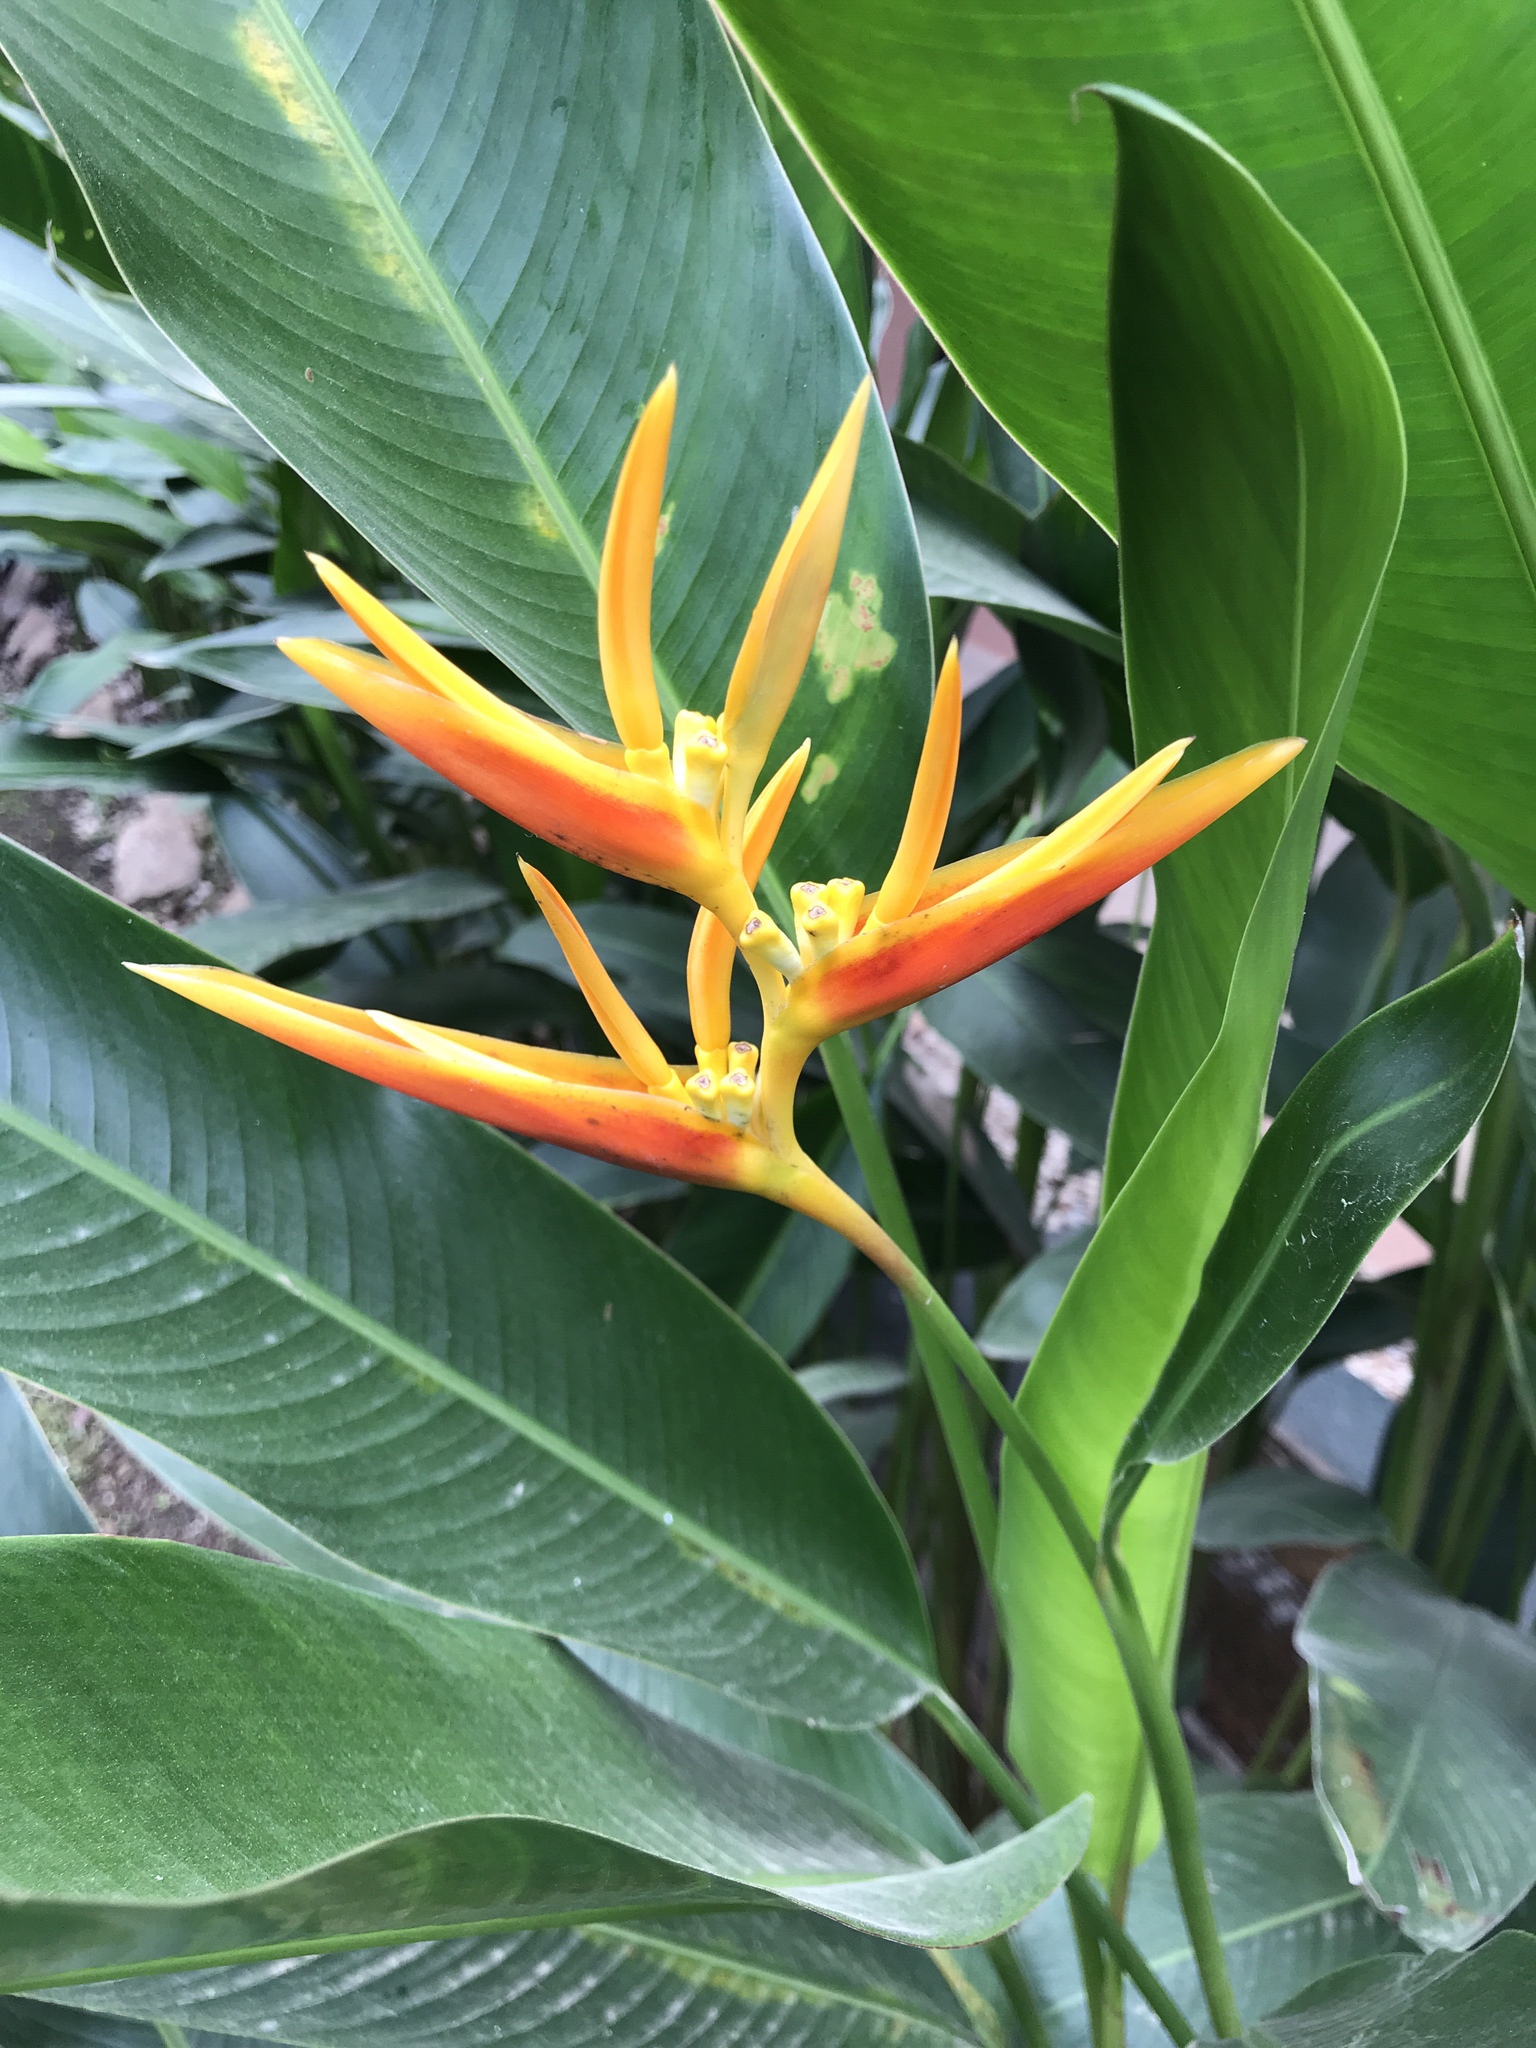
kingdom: Plantae
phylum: Tracheophyta
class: Liliopsida
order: Zingiberales
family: Heliconiaceae
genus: Heliconia
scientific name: Heliconia nickeriensis
